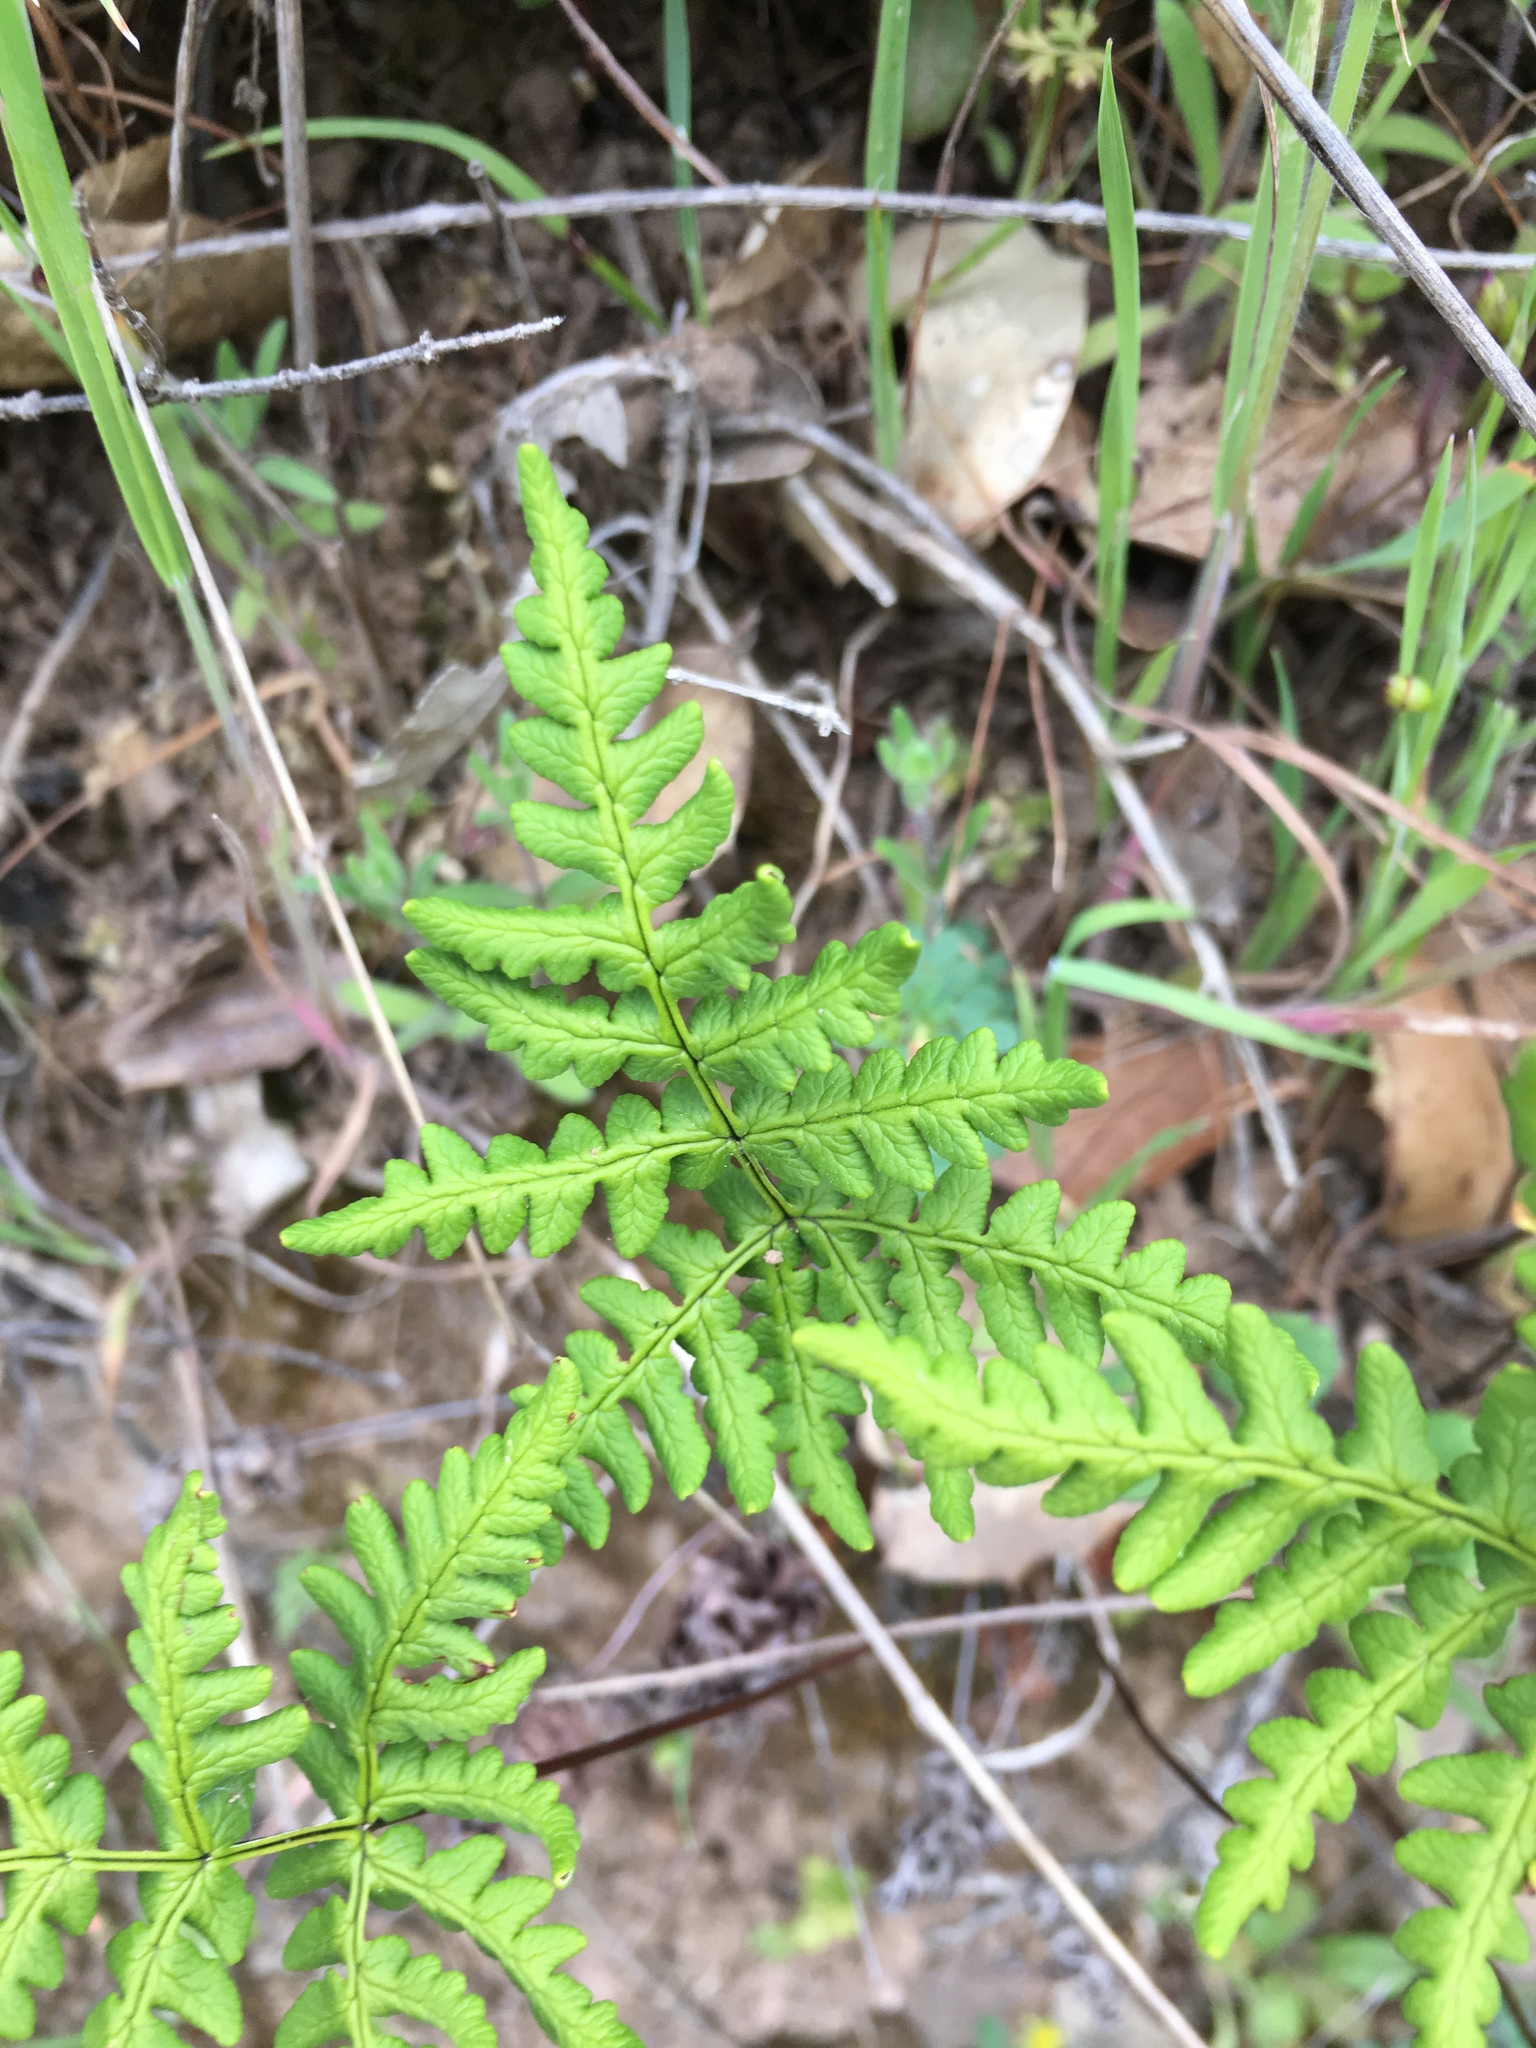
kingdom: Plantae
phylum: Tracheophyta
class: Polypodiopsida
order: Polypodiales
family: Pteridaceae
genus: Pentagramma
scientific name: Pentagramma triangularis
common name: Gold fern
